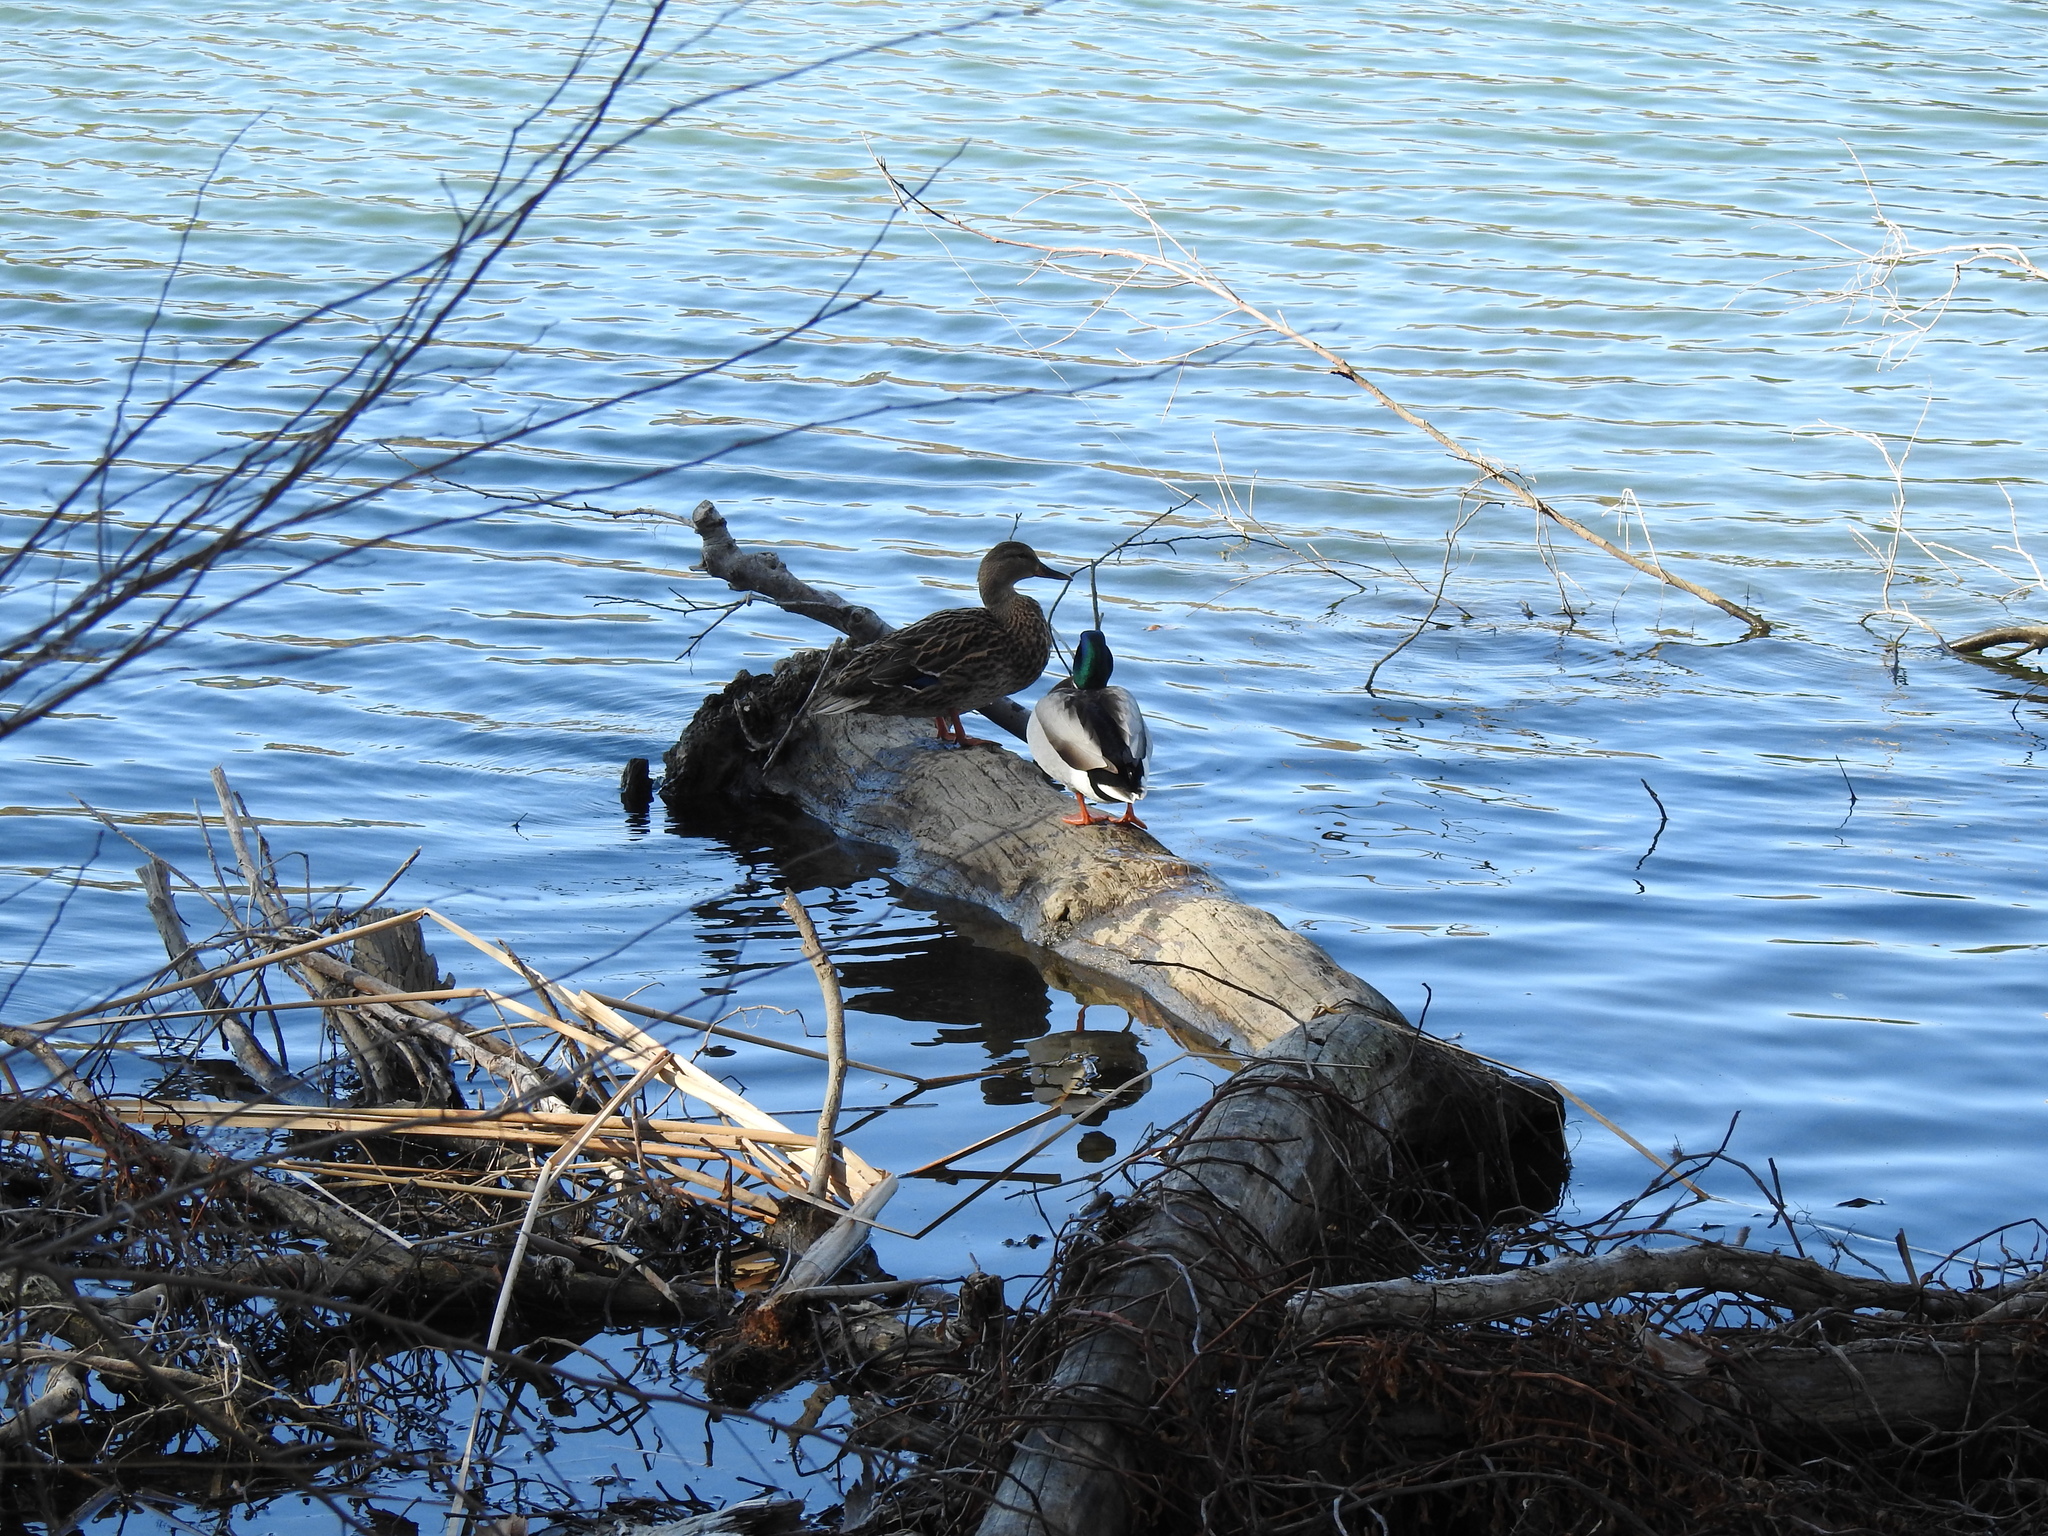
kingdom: Animalia
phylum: Chordata
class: Aves
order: Anseriformes
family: Anatidae
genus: Anas
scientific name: Anas platyrhynchos
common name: Mallard
